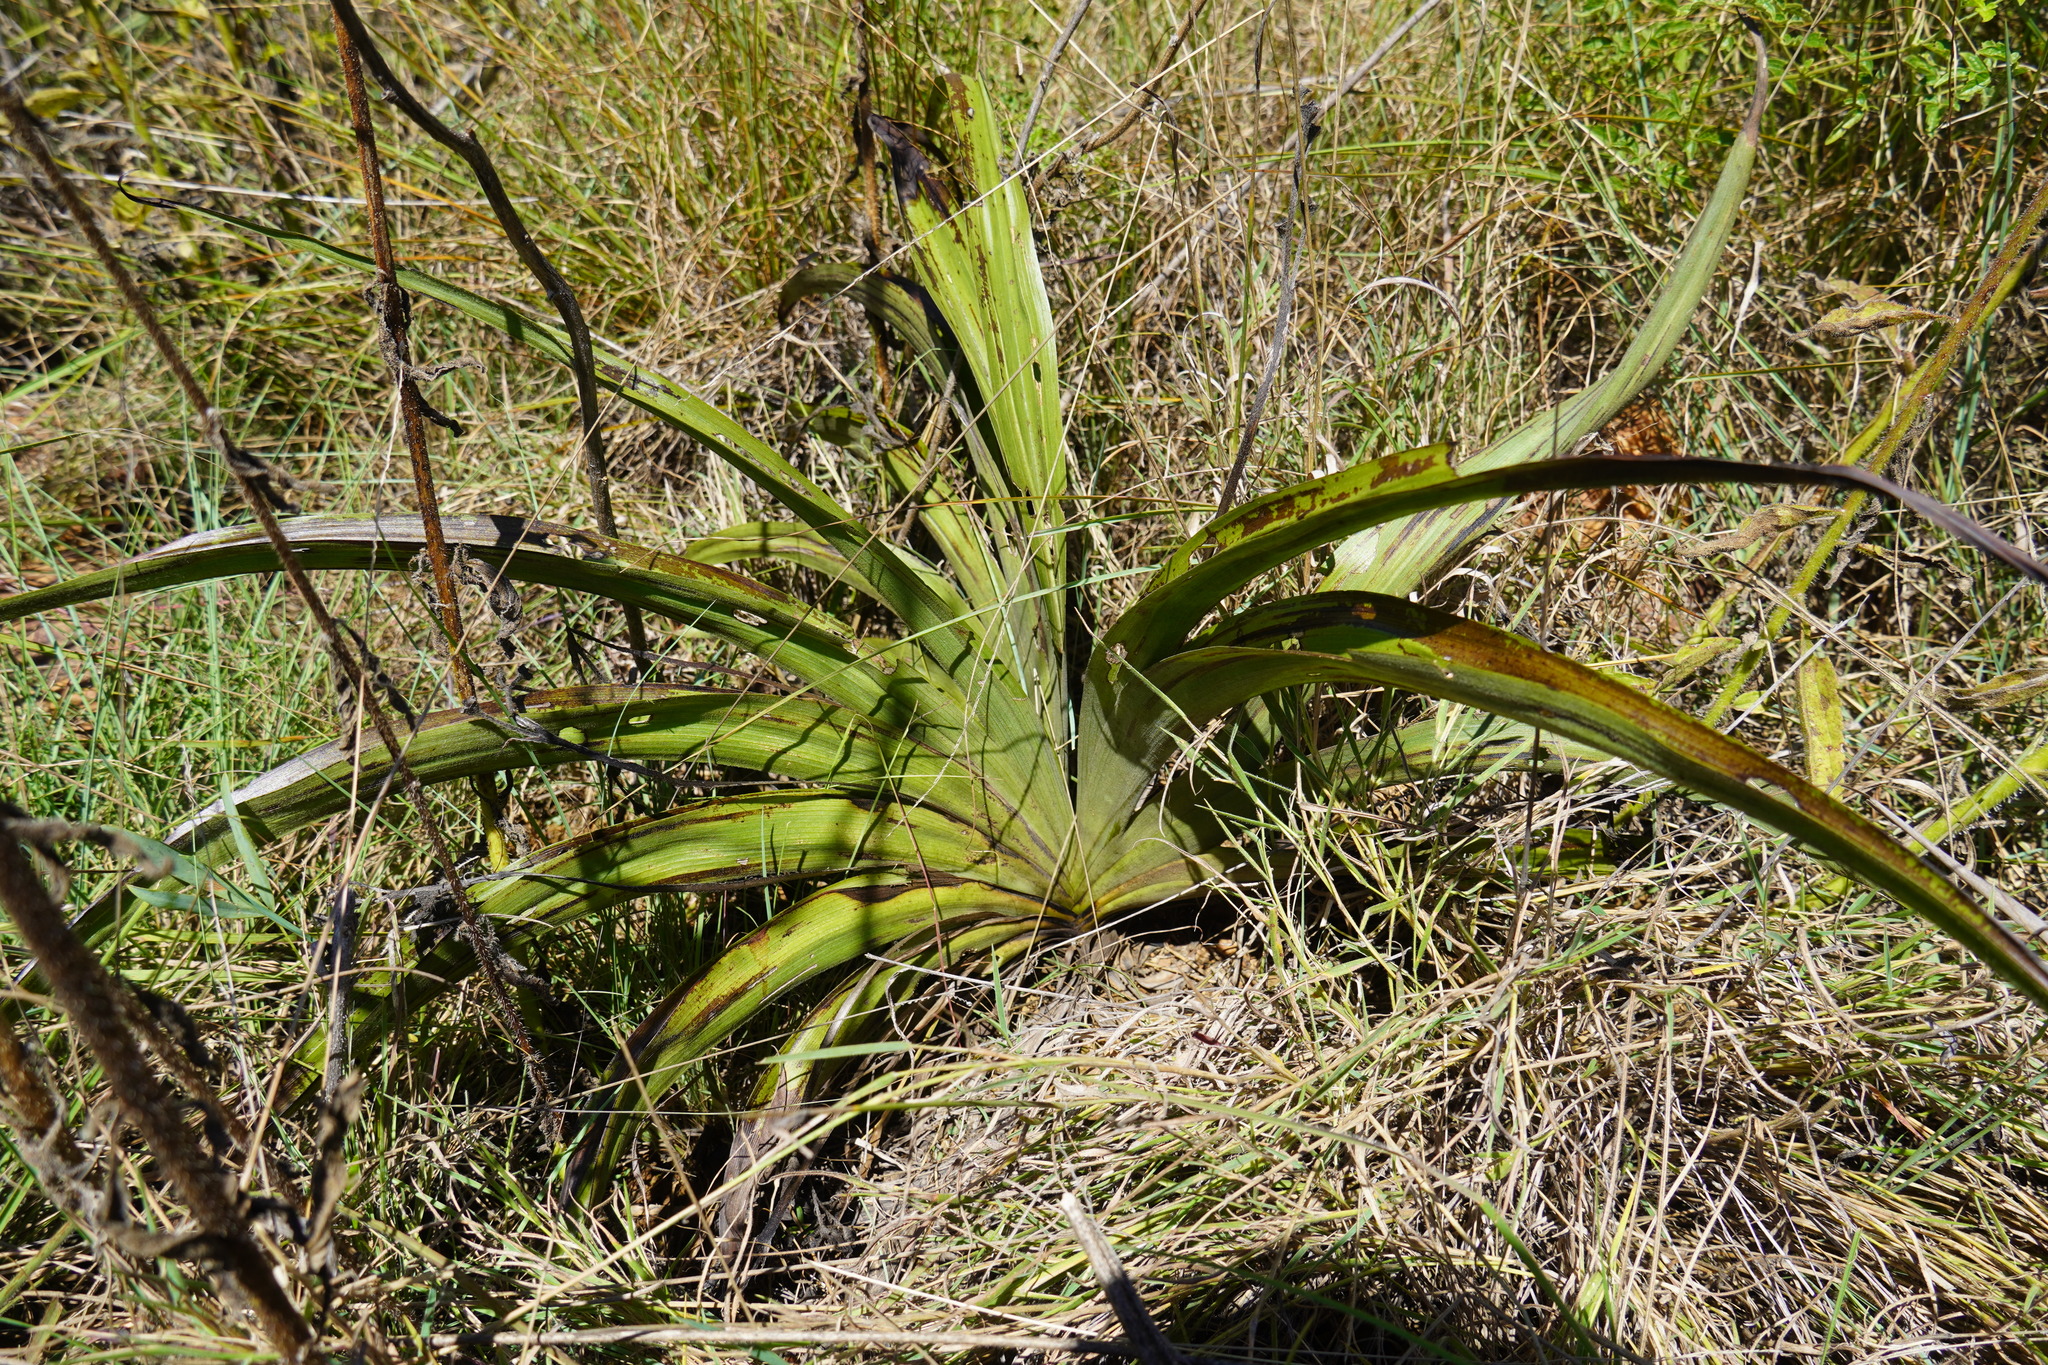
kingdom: Plantae
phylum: Tracheophyta
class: Liliopsida
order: Asparagales
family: Hypoxidaceae
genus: Hypoxis
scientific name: Hypoxis hemerocallidea
